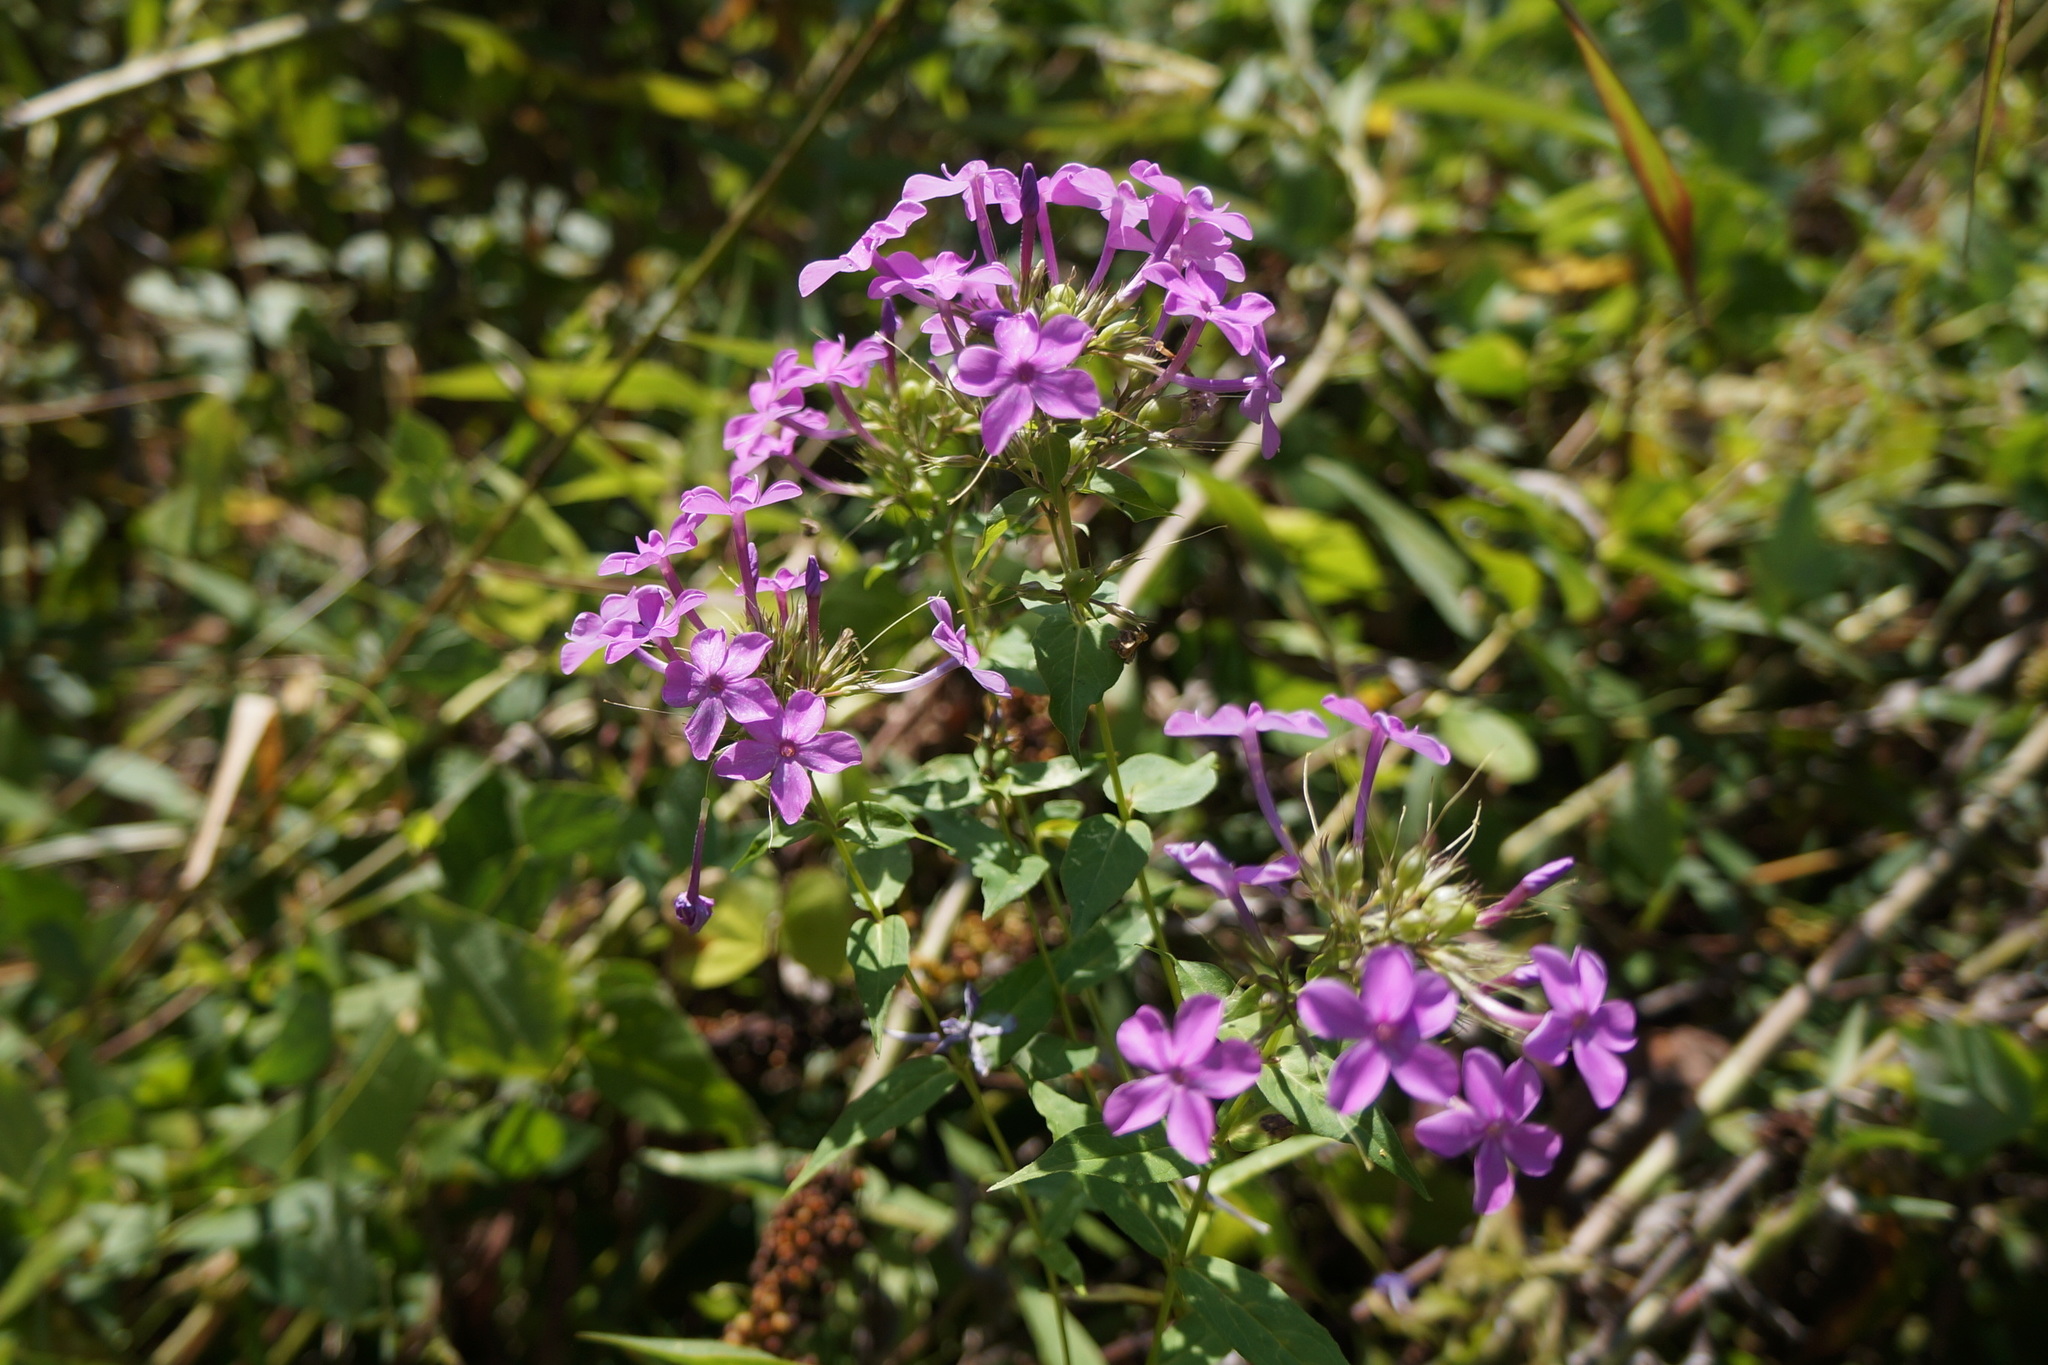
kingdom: Plantae
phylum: Tracheophyta
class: Magnoliopsida
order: Ericales
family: Polemoniaceae
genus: Phlox
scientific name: Phlox paniculata
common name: Fall phlox
